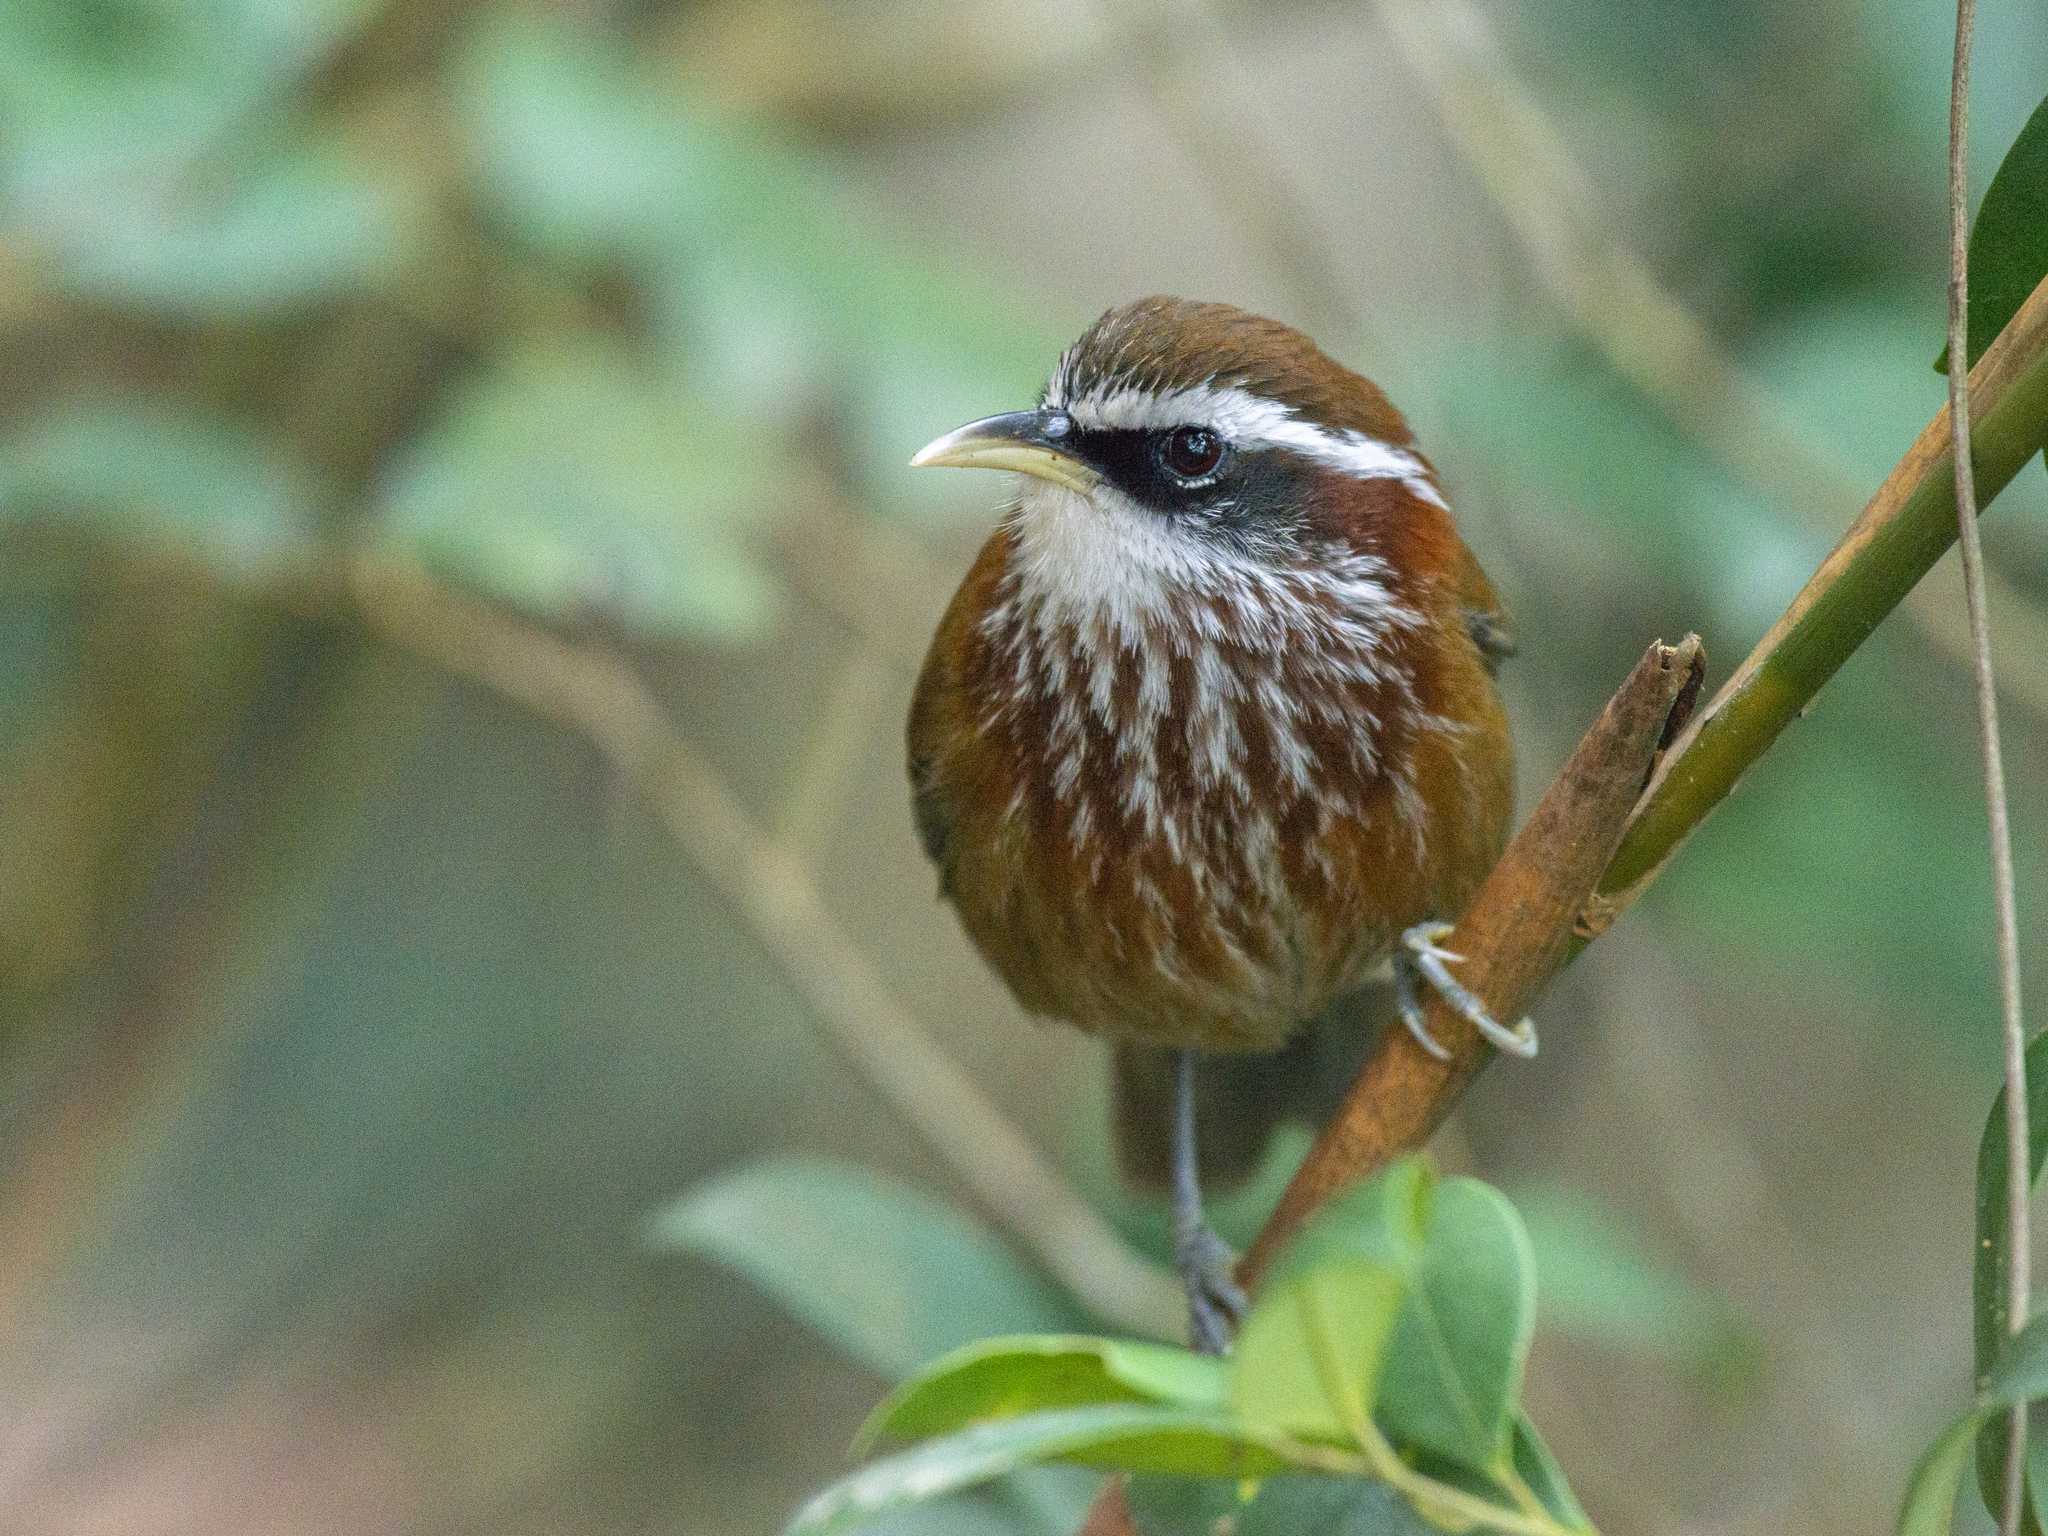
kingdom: Animalia
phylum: Chordata
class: Aves
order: Passeriformes
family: Timaliidae
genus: Pomatorhinus
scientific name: Pomatorhinus ruficollis
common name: Streak-breasted scimitar babbler
